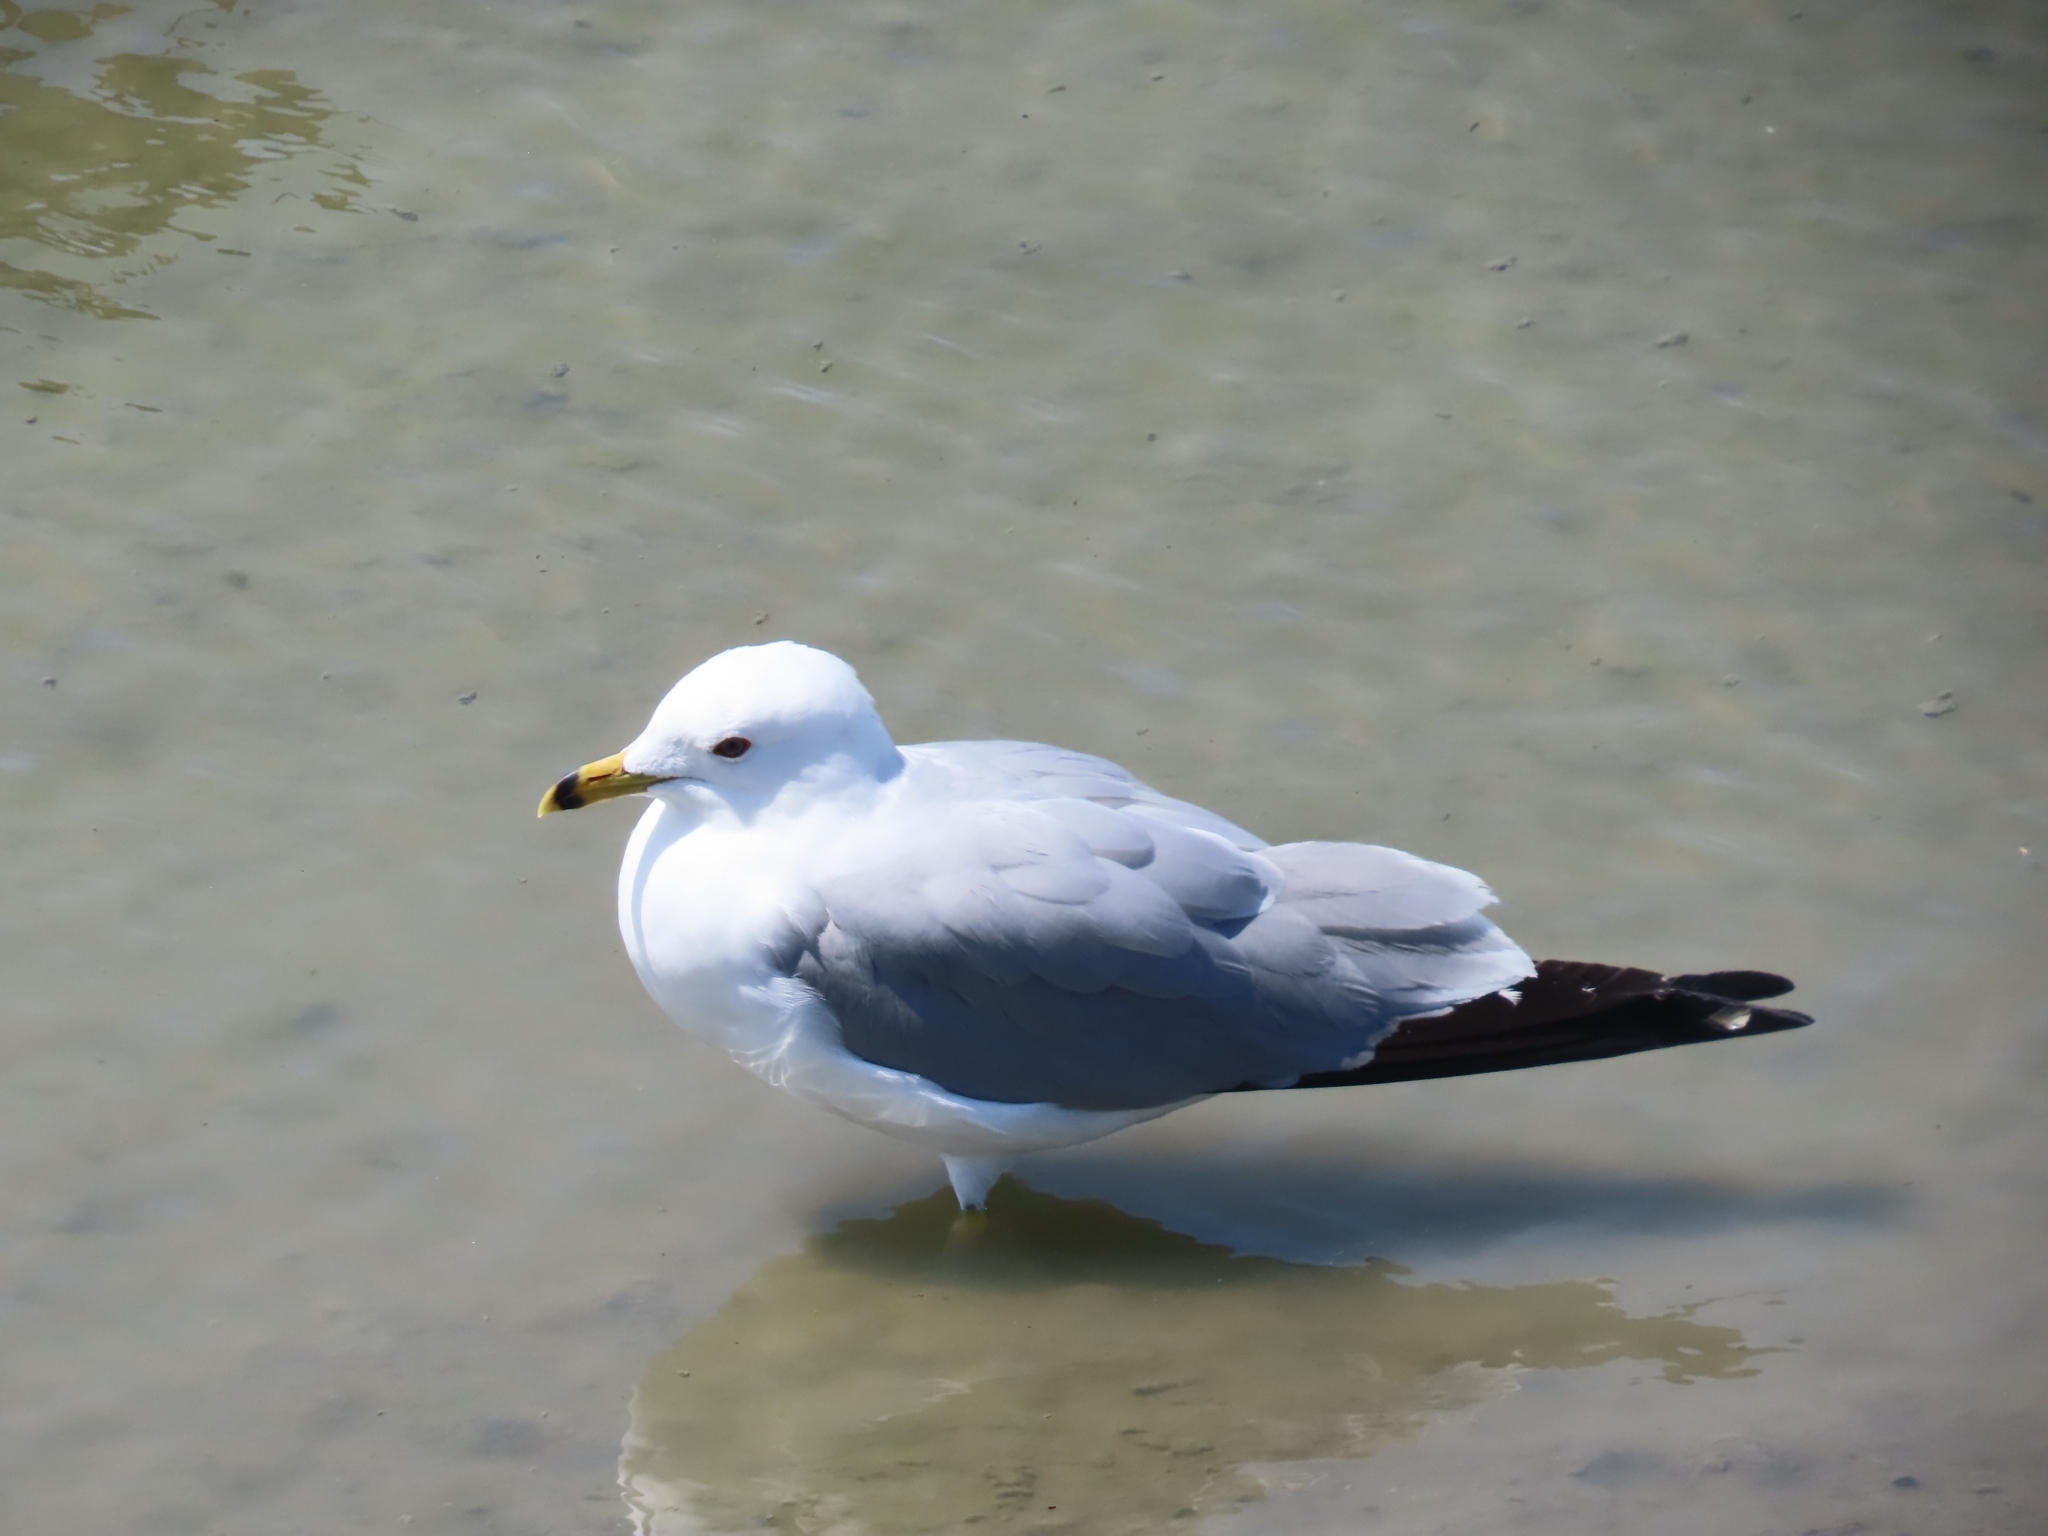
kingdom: Animalia
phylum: Chordata
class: Aves
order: Charadriiformes
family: Laridae
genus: Larus
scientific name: Larus delawarensis
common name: Ring-billed gull
